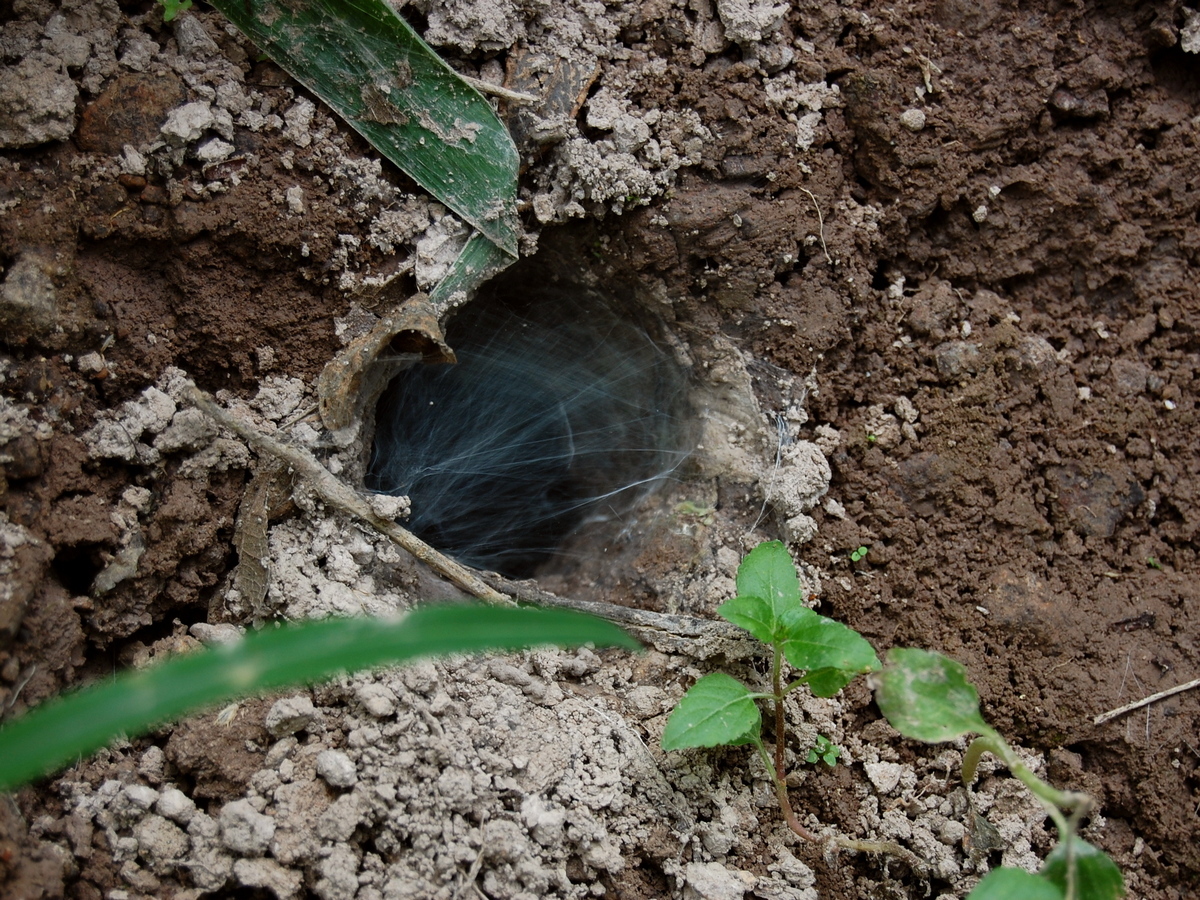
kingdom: Animalia
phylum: Arthropoda
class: Arachnida
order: Araneae
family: Theraphosidae
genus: Selenocosmia
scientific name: Selenocosmia javanensis
